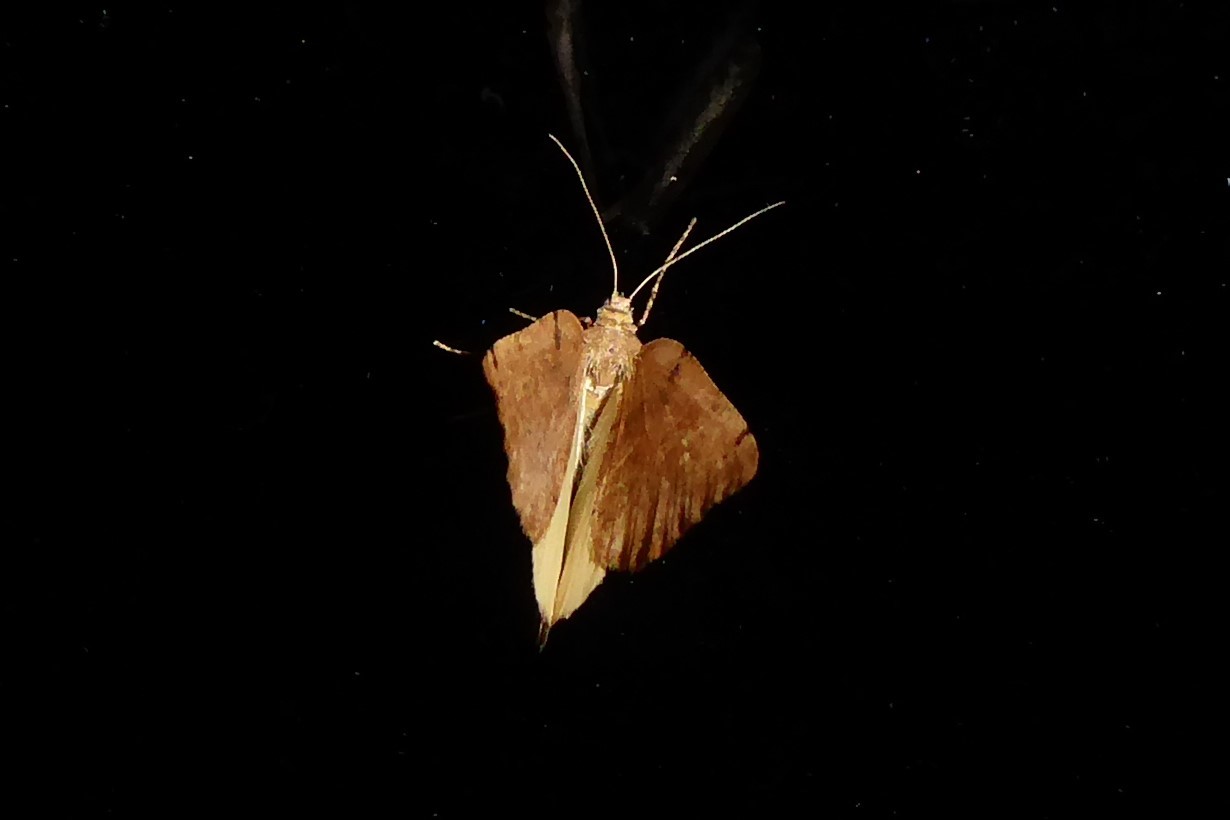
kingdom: Animalia
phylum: Arthropoda
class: Insecta
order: Lepidoptera
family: Geometridae
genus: Sestra
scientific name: Sestra humeraria
